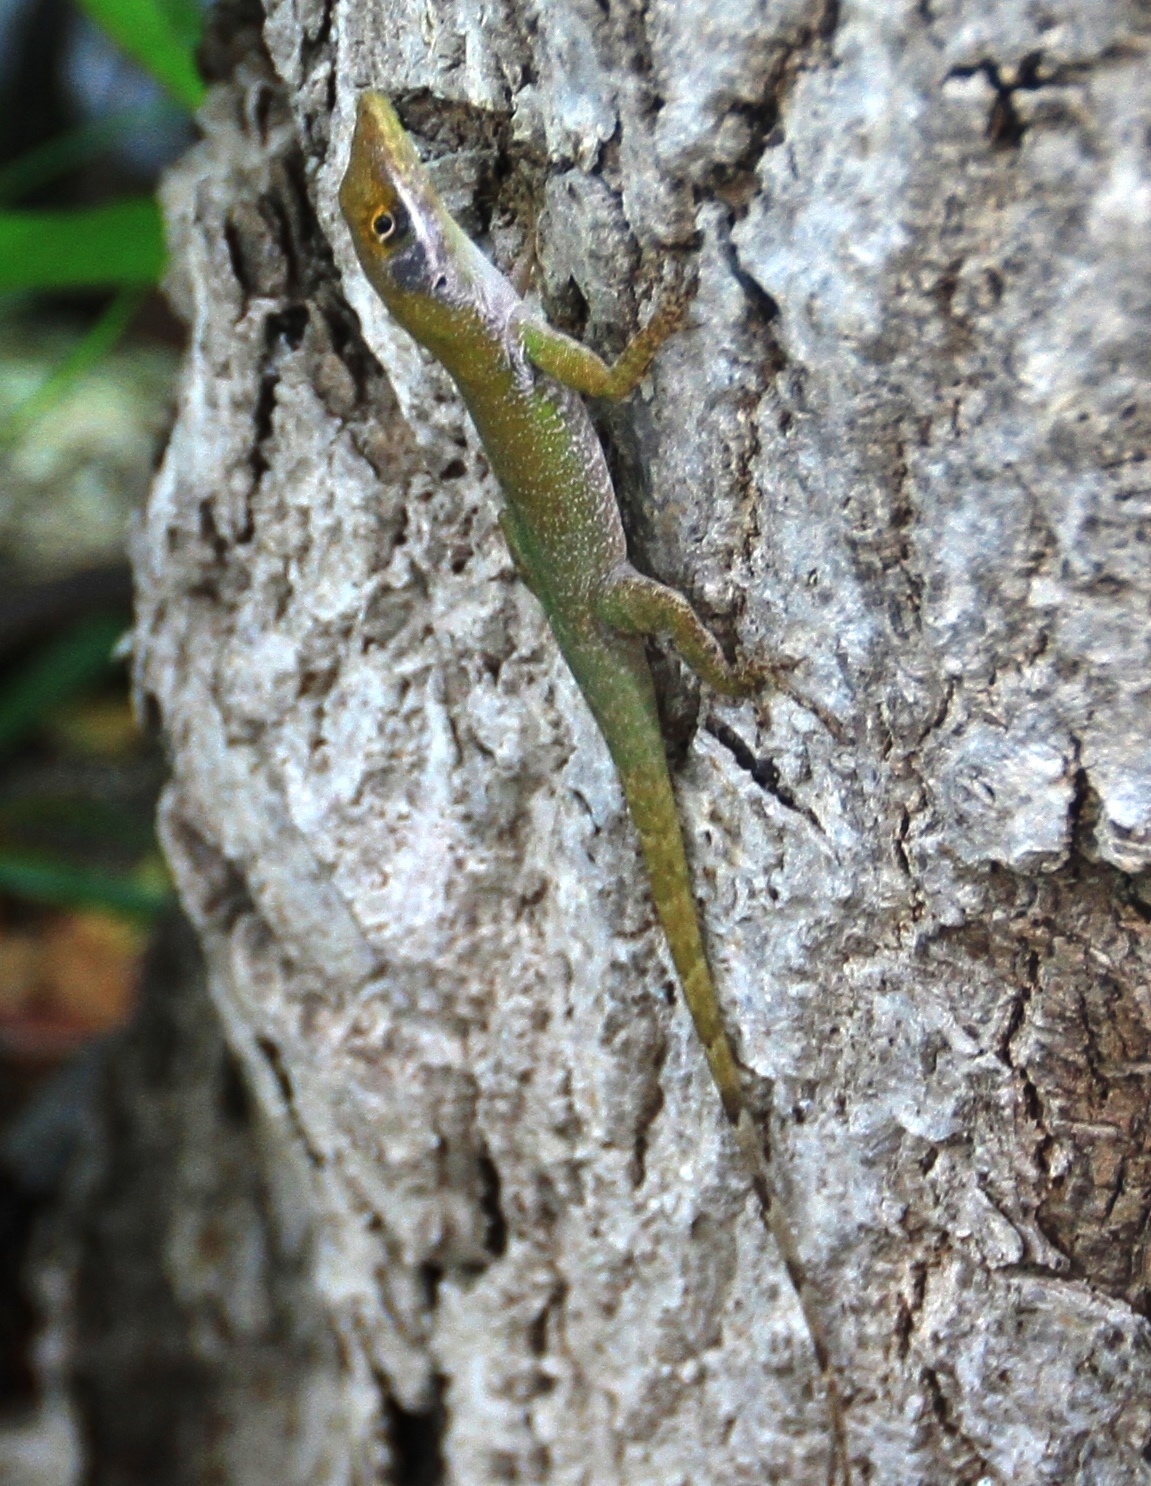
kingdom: Animalia
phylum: Chordata
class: Squamata
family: Dactyloidae
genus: Anolis
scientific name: Anolis chlorocyanus
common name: Hispaniolan green anole
